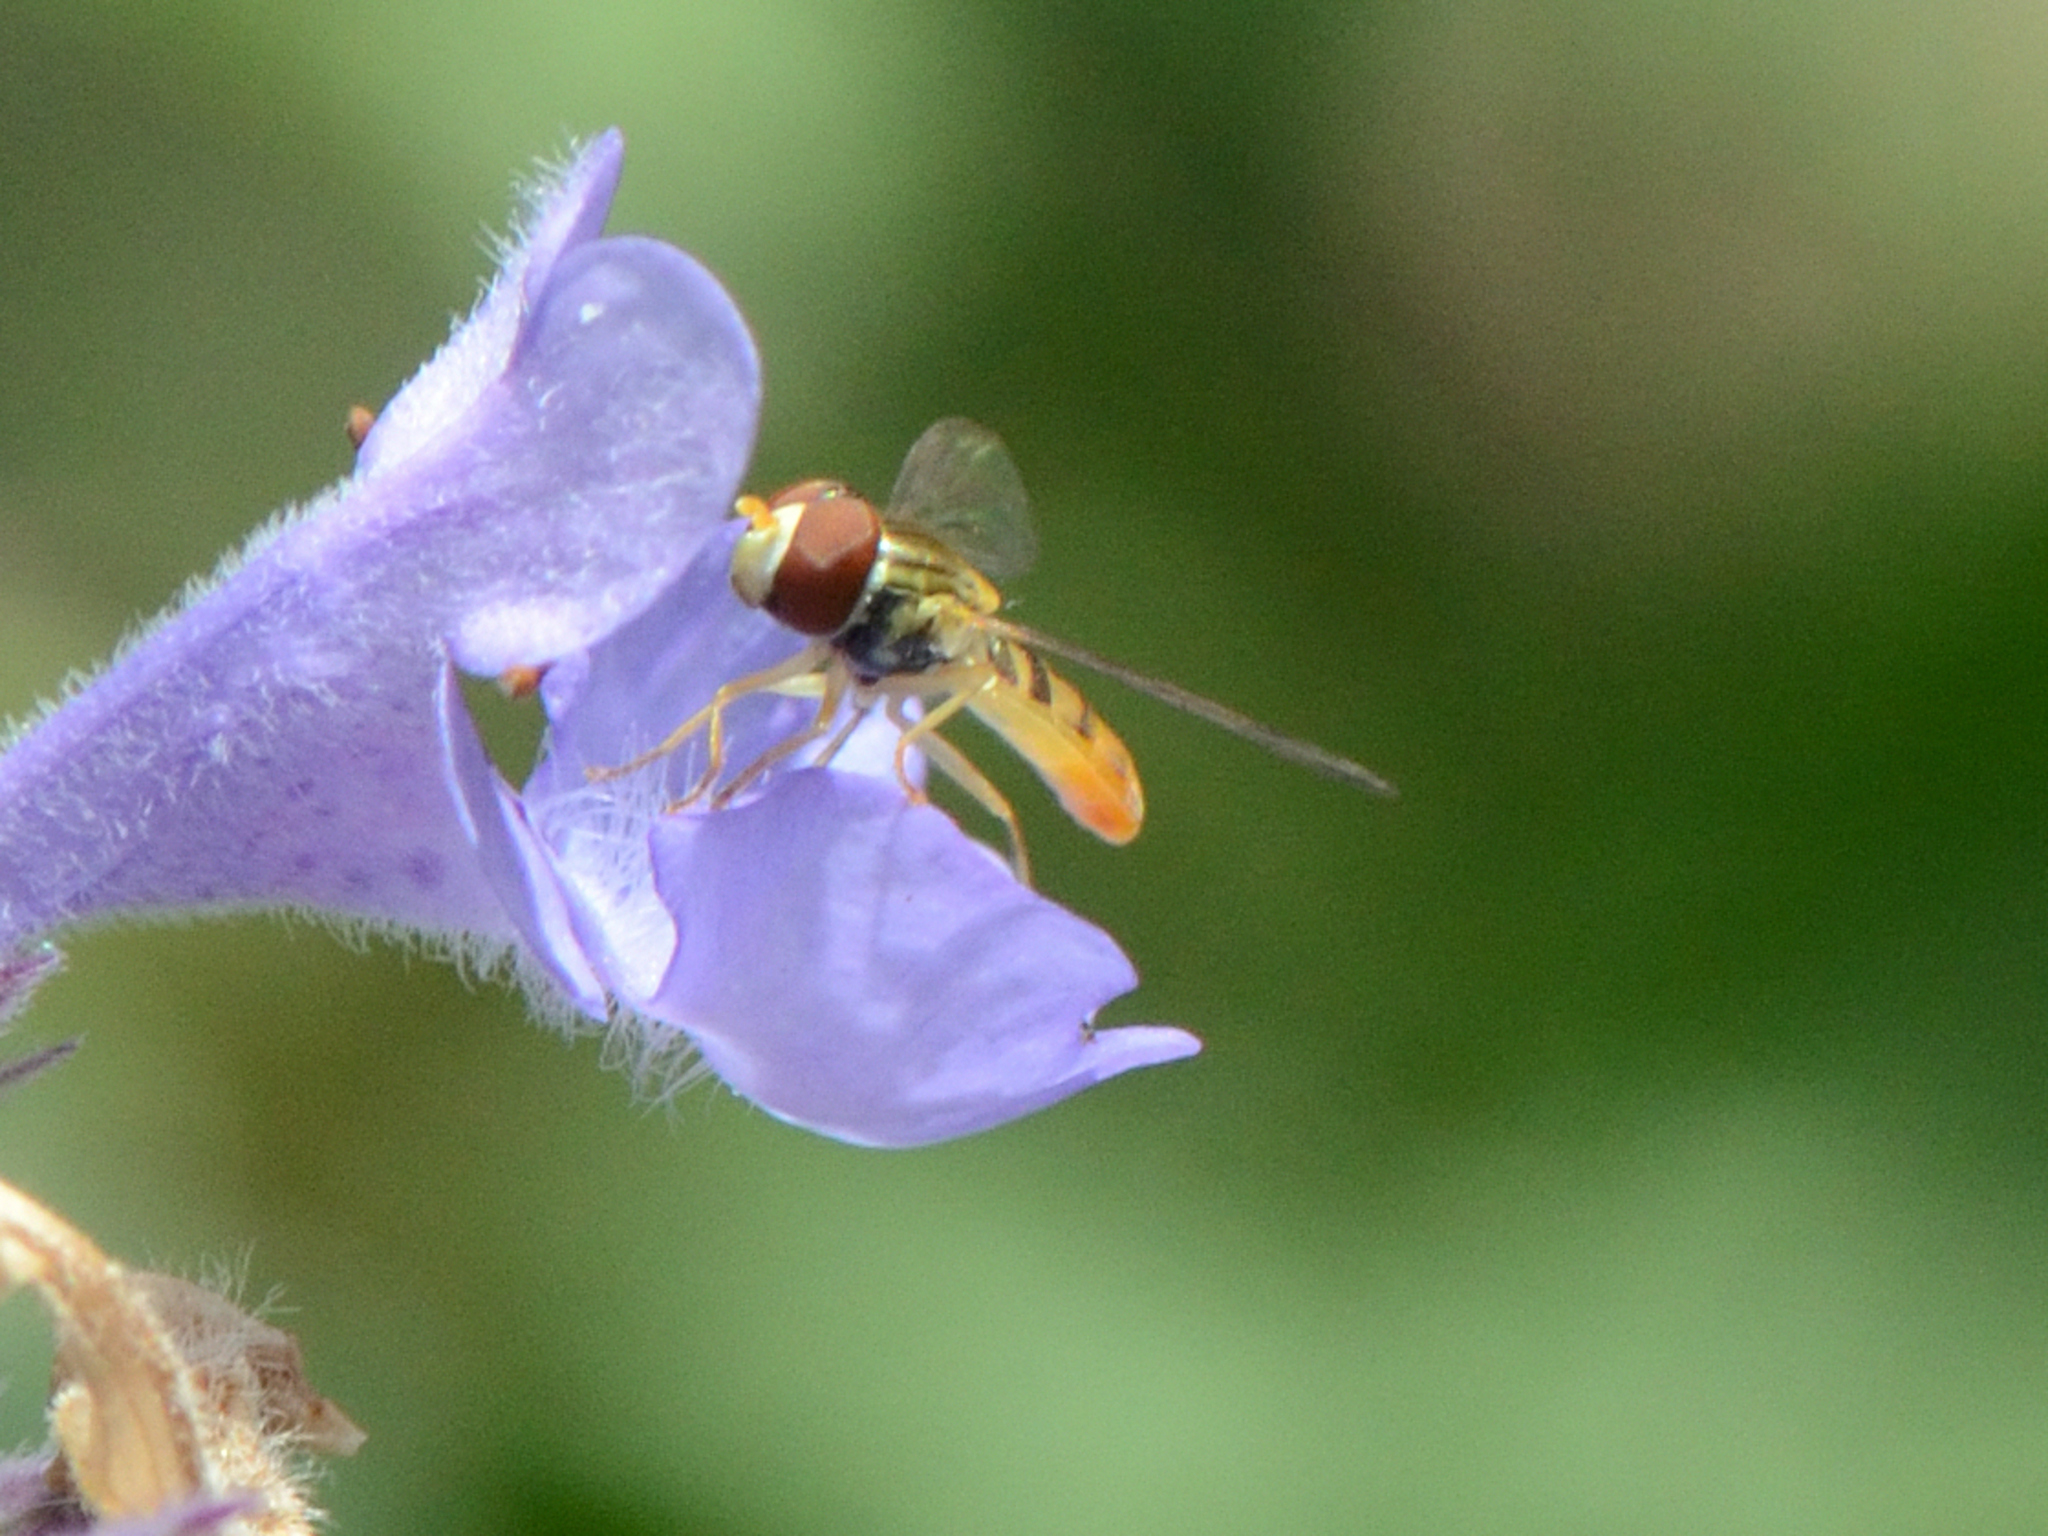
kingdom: Animalia
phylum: Arthropoda
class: Insecta
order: Diptera
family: Syrphidae
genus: Toxomerus
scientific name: Toxomerus marginatus
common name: Syrphid fly
